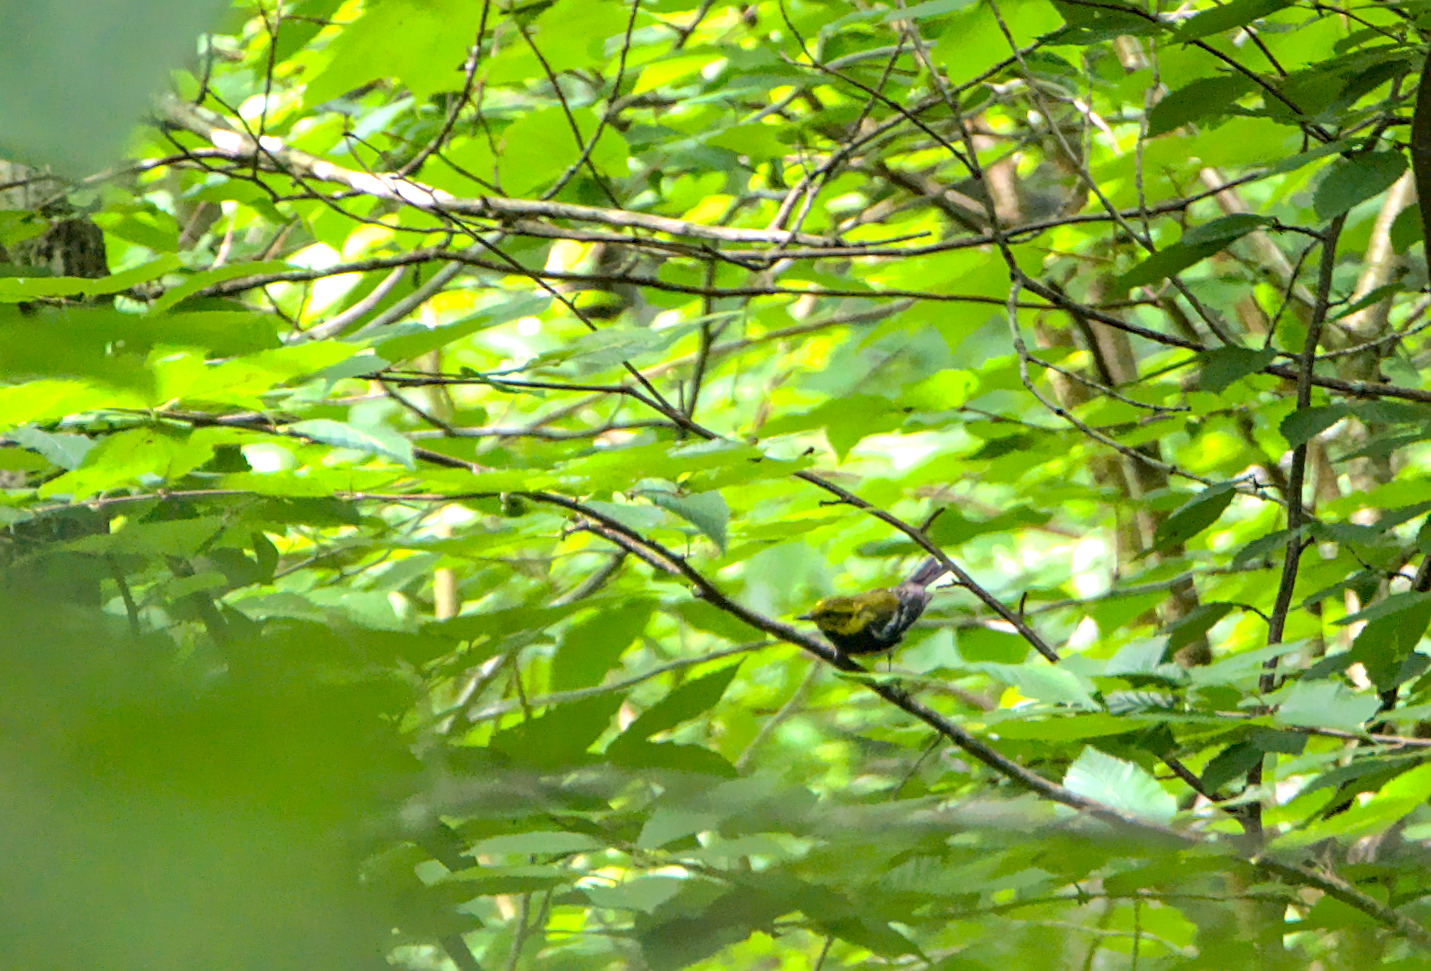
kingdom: Animalia
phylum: Chordata
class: Aves
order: Passeriformes
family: Parulidae
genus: Setophaga
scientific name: Setophaga virens
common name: Black-throated green warbler
